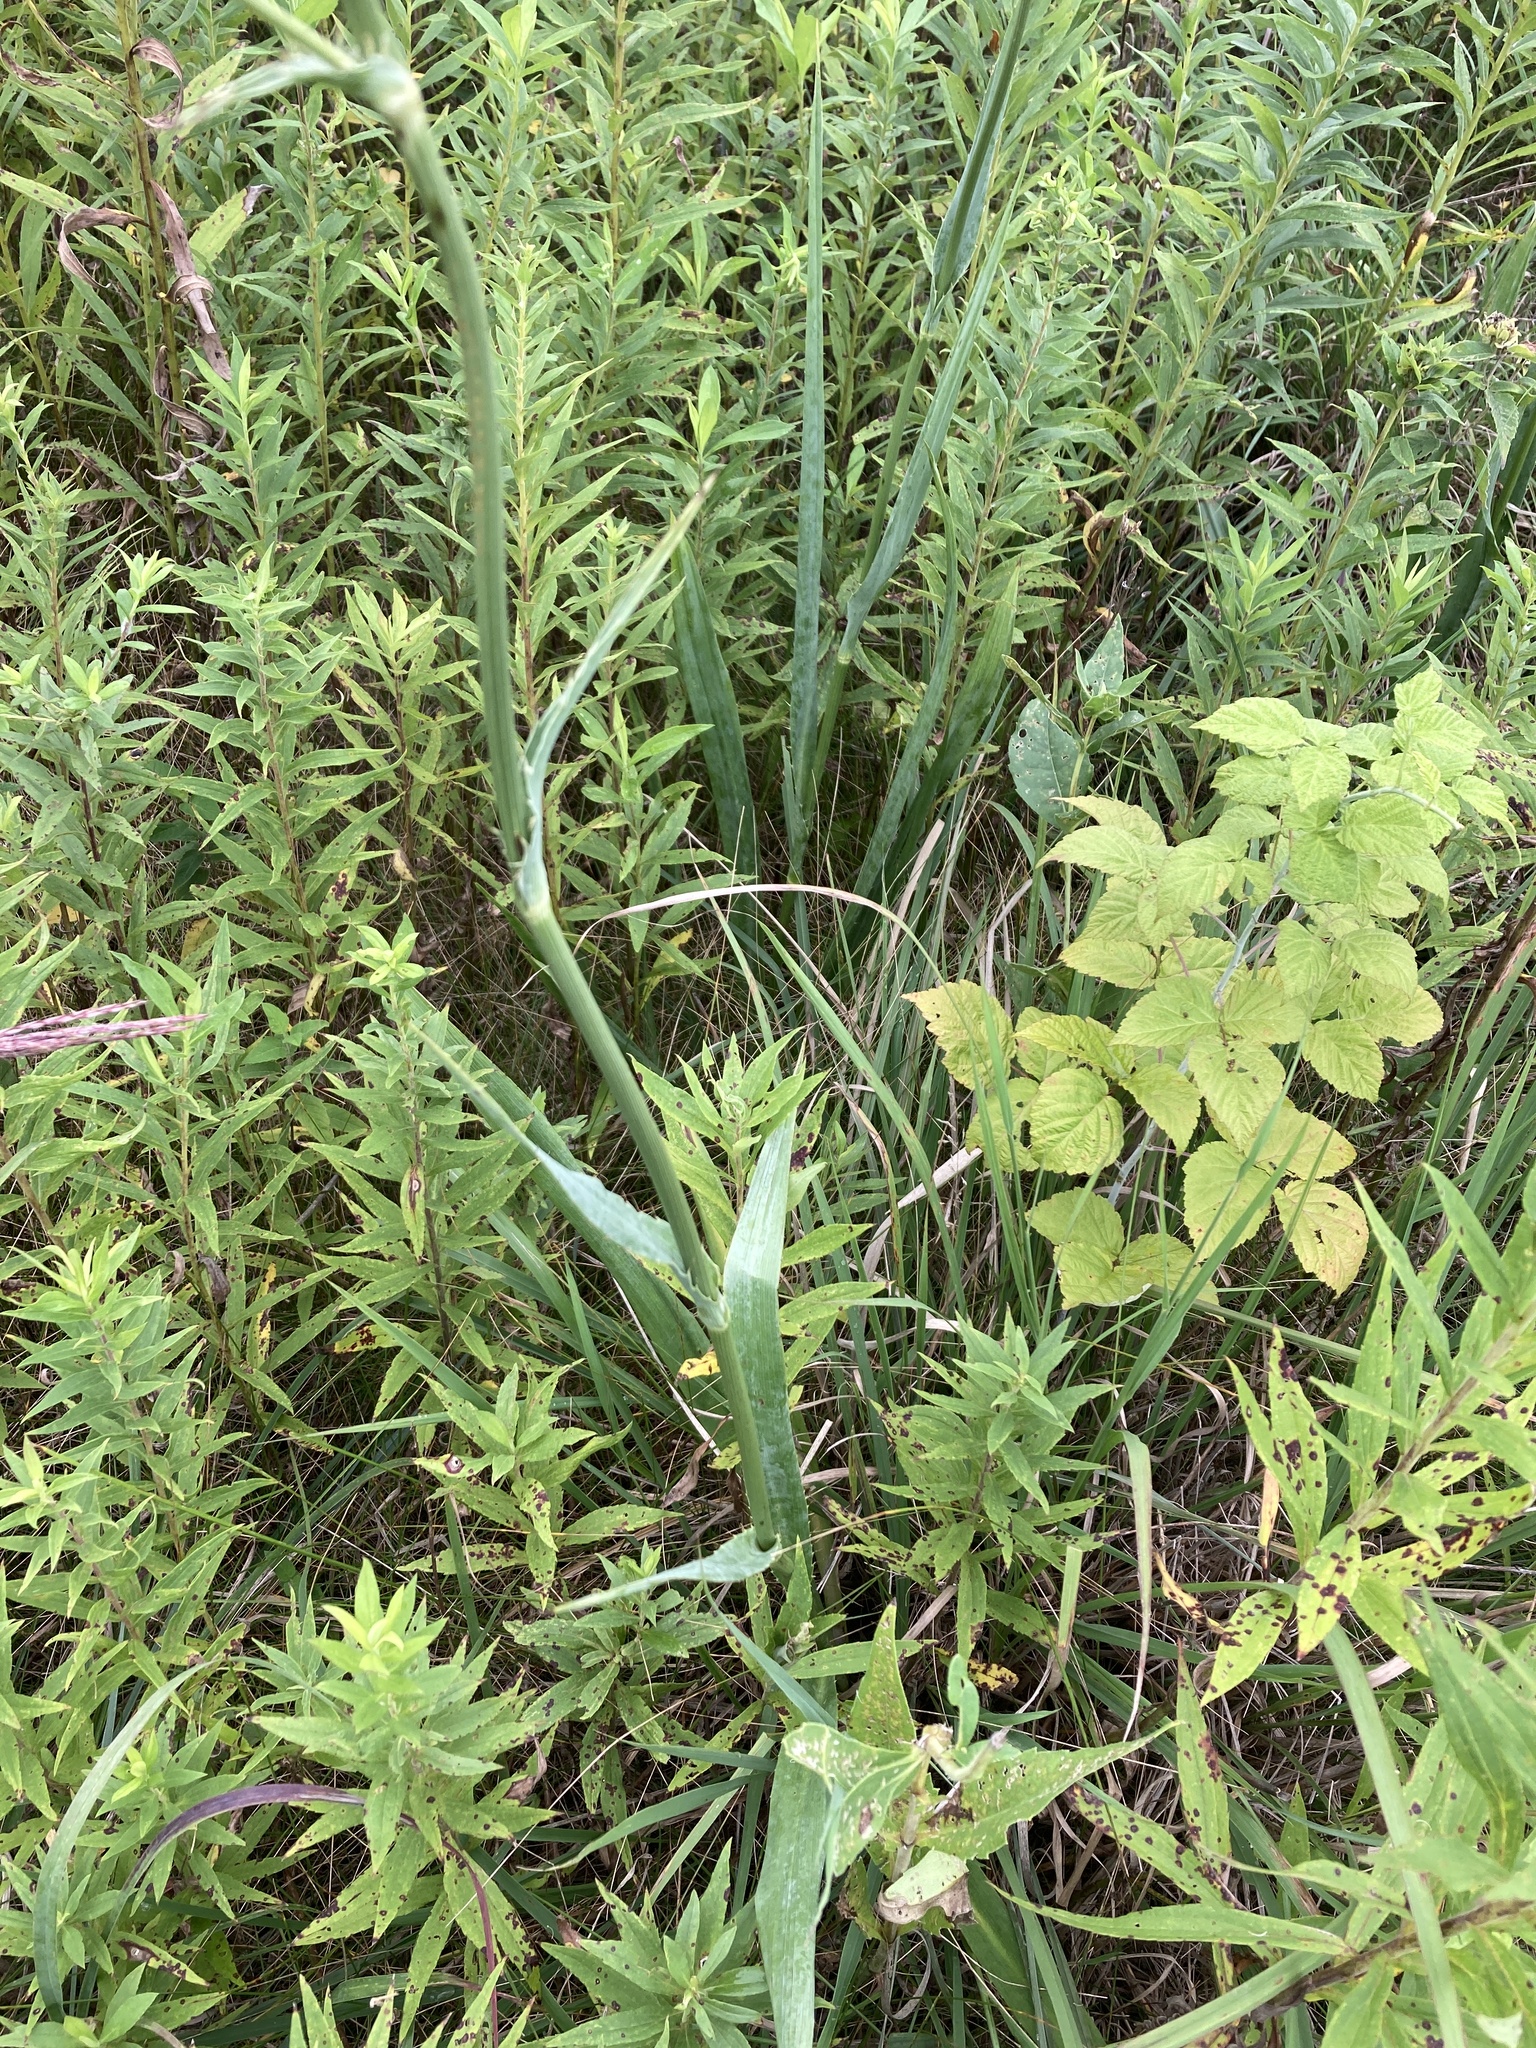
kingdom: Plantae
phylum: Tracheophyta
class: Magnoliopsida
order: Apiales
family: Apiaceae
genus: Eryngium
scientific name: Eryngium yuccifolium
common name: Button eryngo
